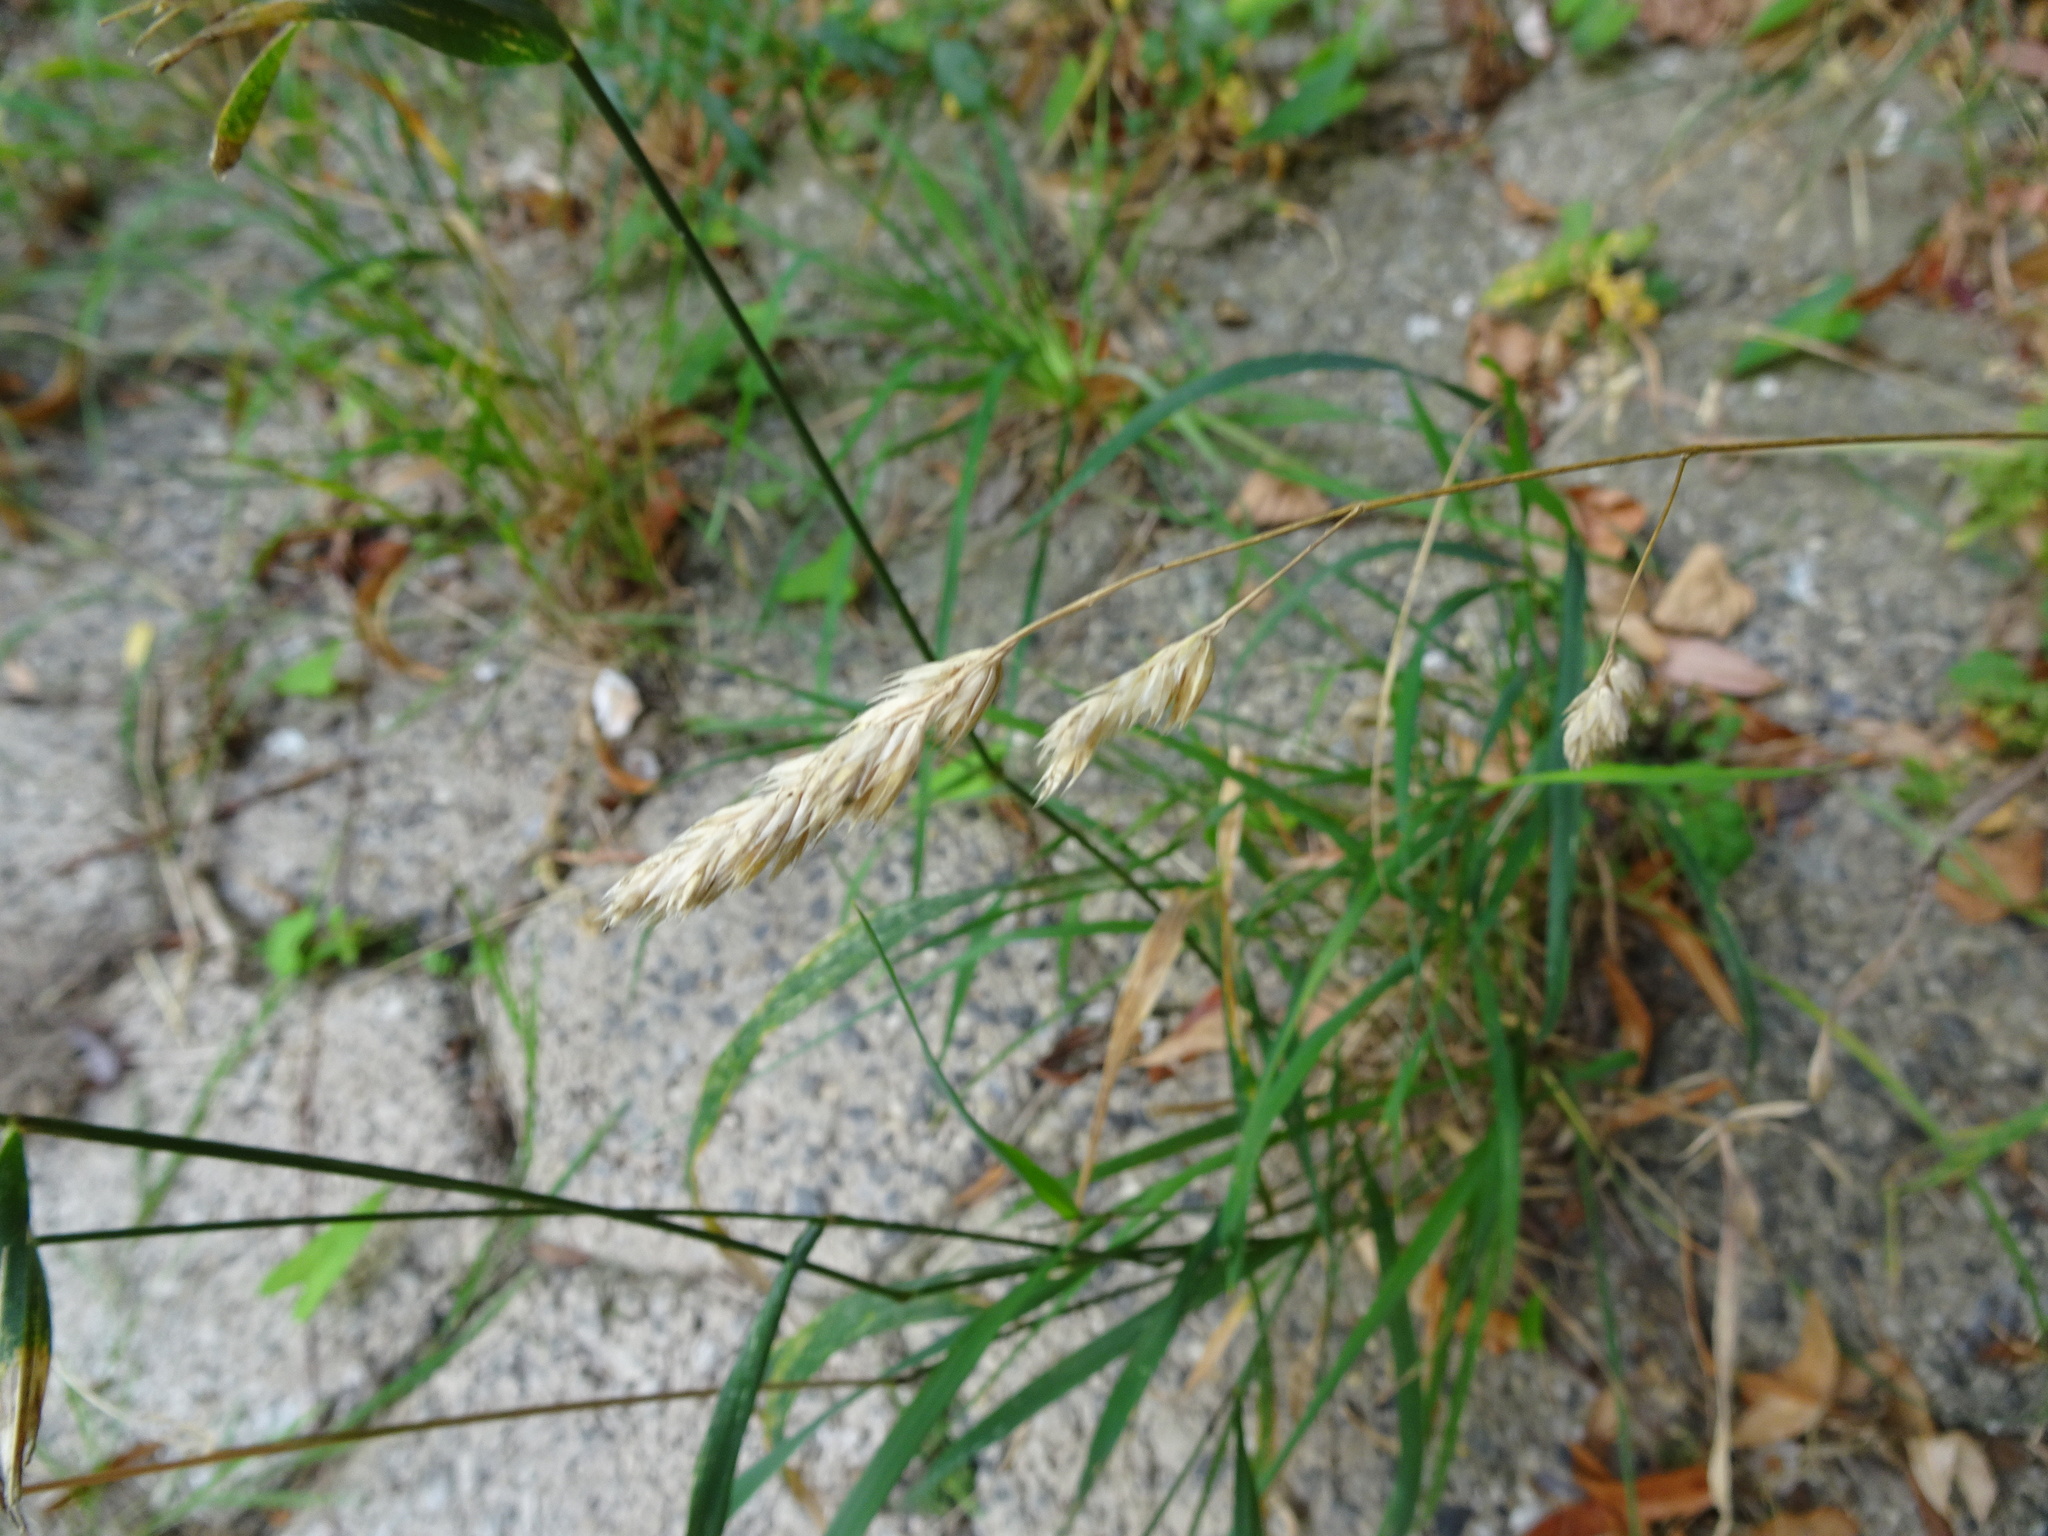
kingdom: Plantae
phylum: Tracheophyta
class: Liliopsida
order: Poales
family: Poaceae
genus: Dactylis
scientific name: Dactylis glomerata
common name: Orchardgrass
